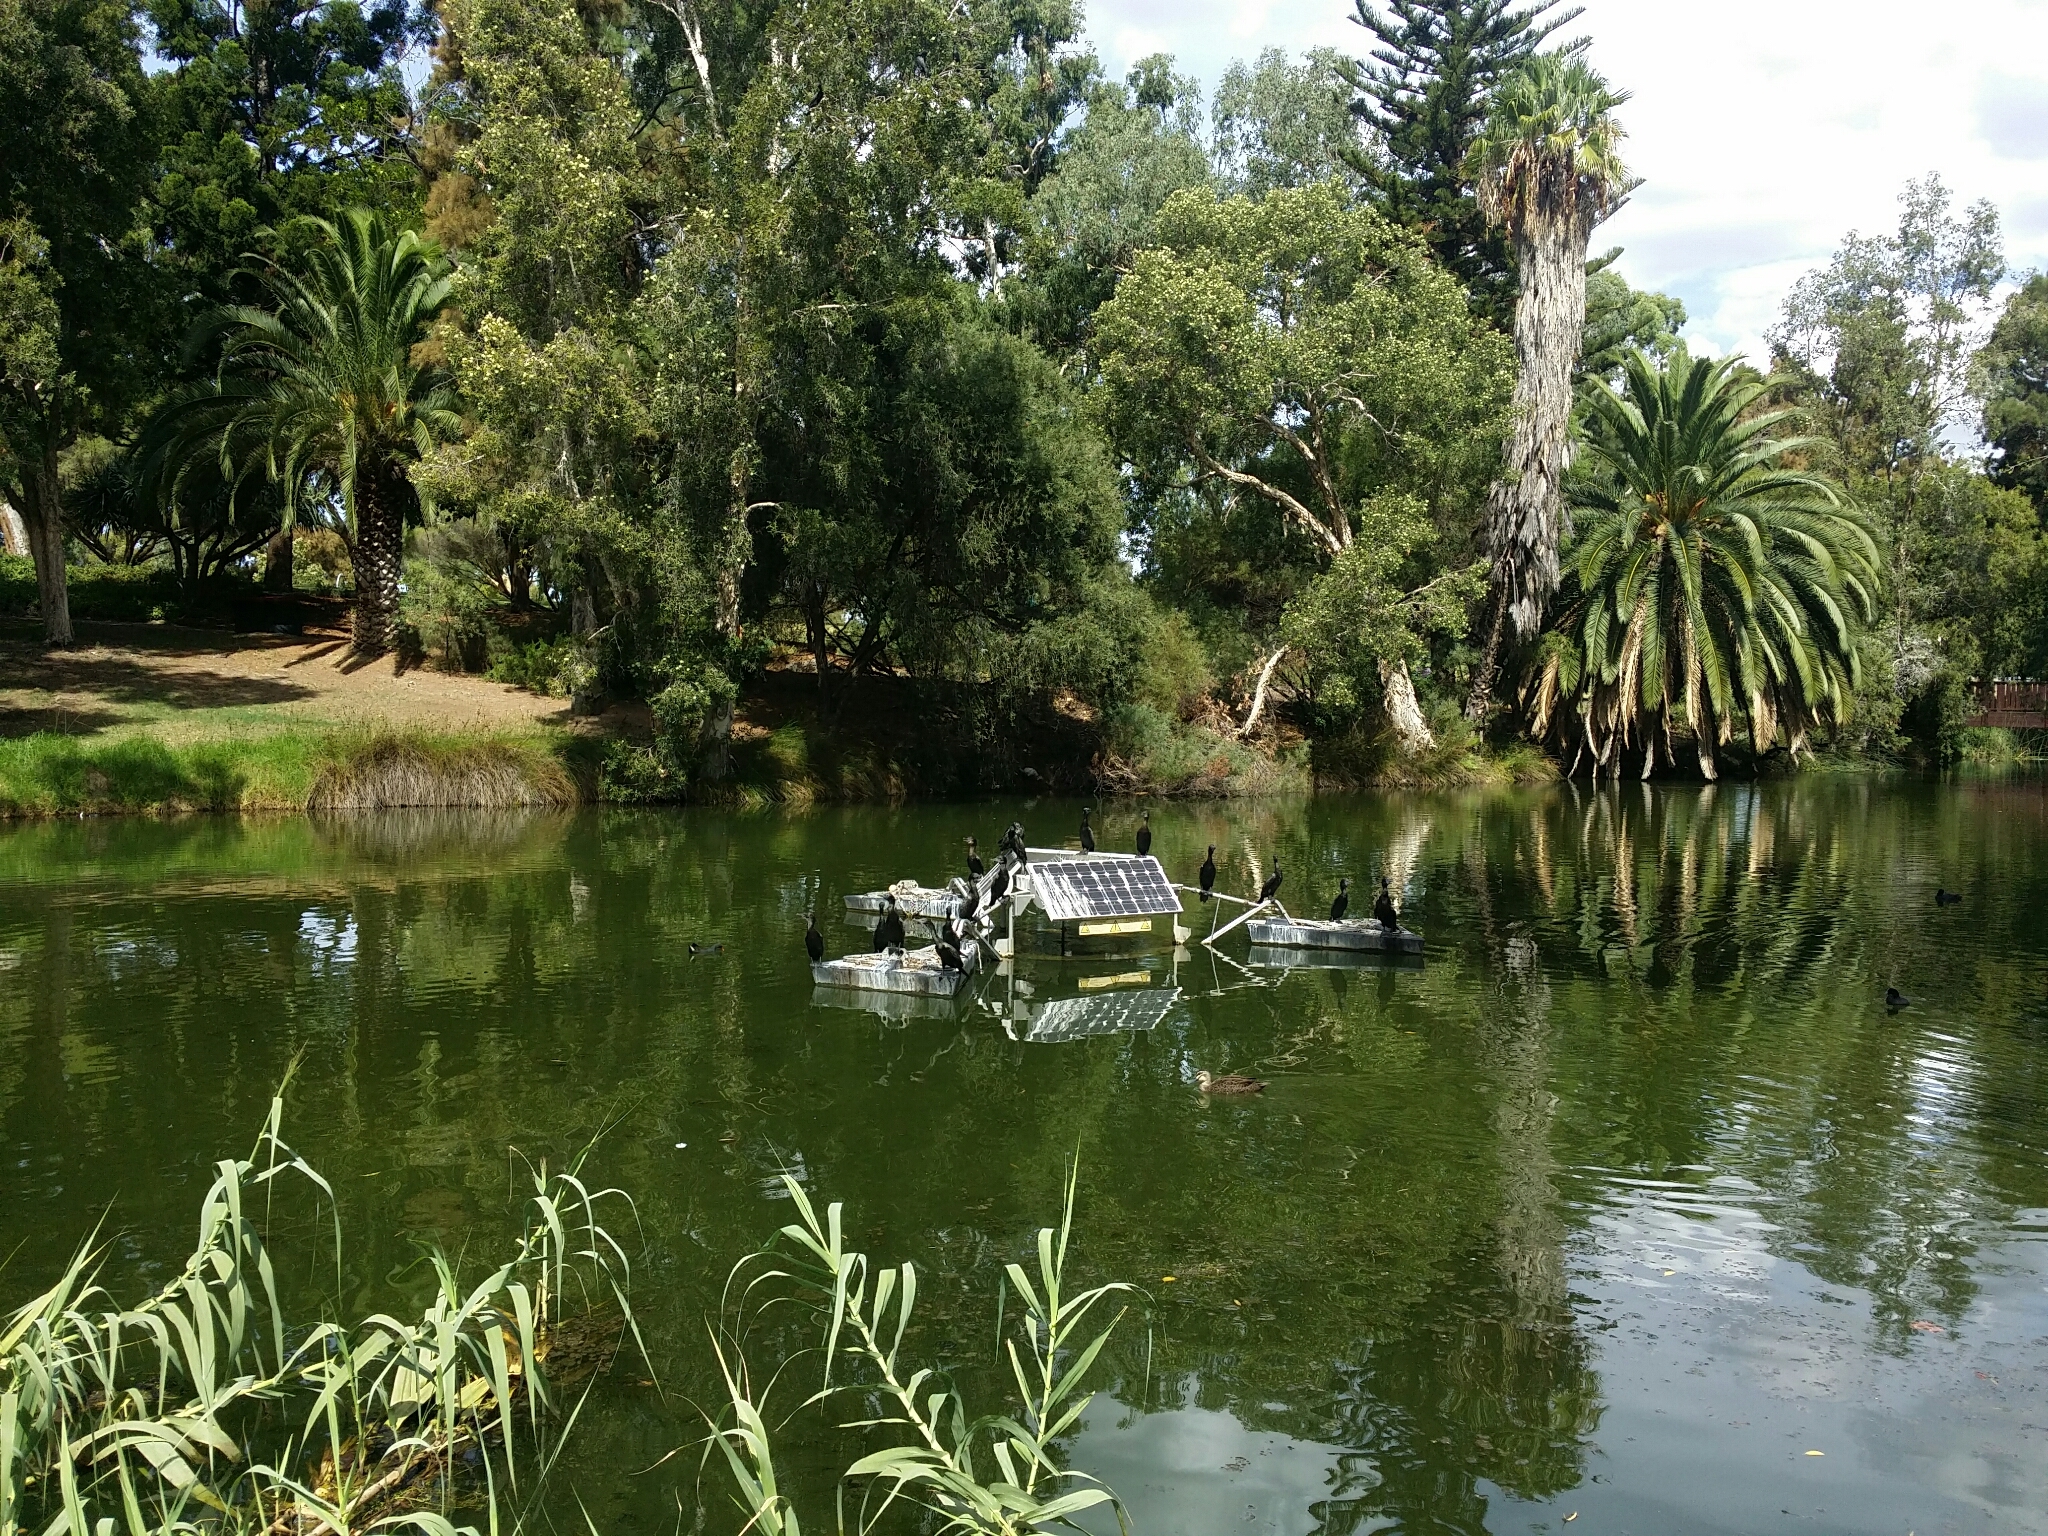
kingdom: Animalia
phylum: Chordata
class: Aves
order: Suliformes
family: Phalacrocoracidae
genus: Phalacrocorax
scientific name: Phalacrocorax sulcirostris
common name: Little black cormorant
